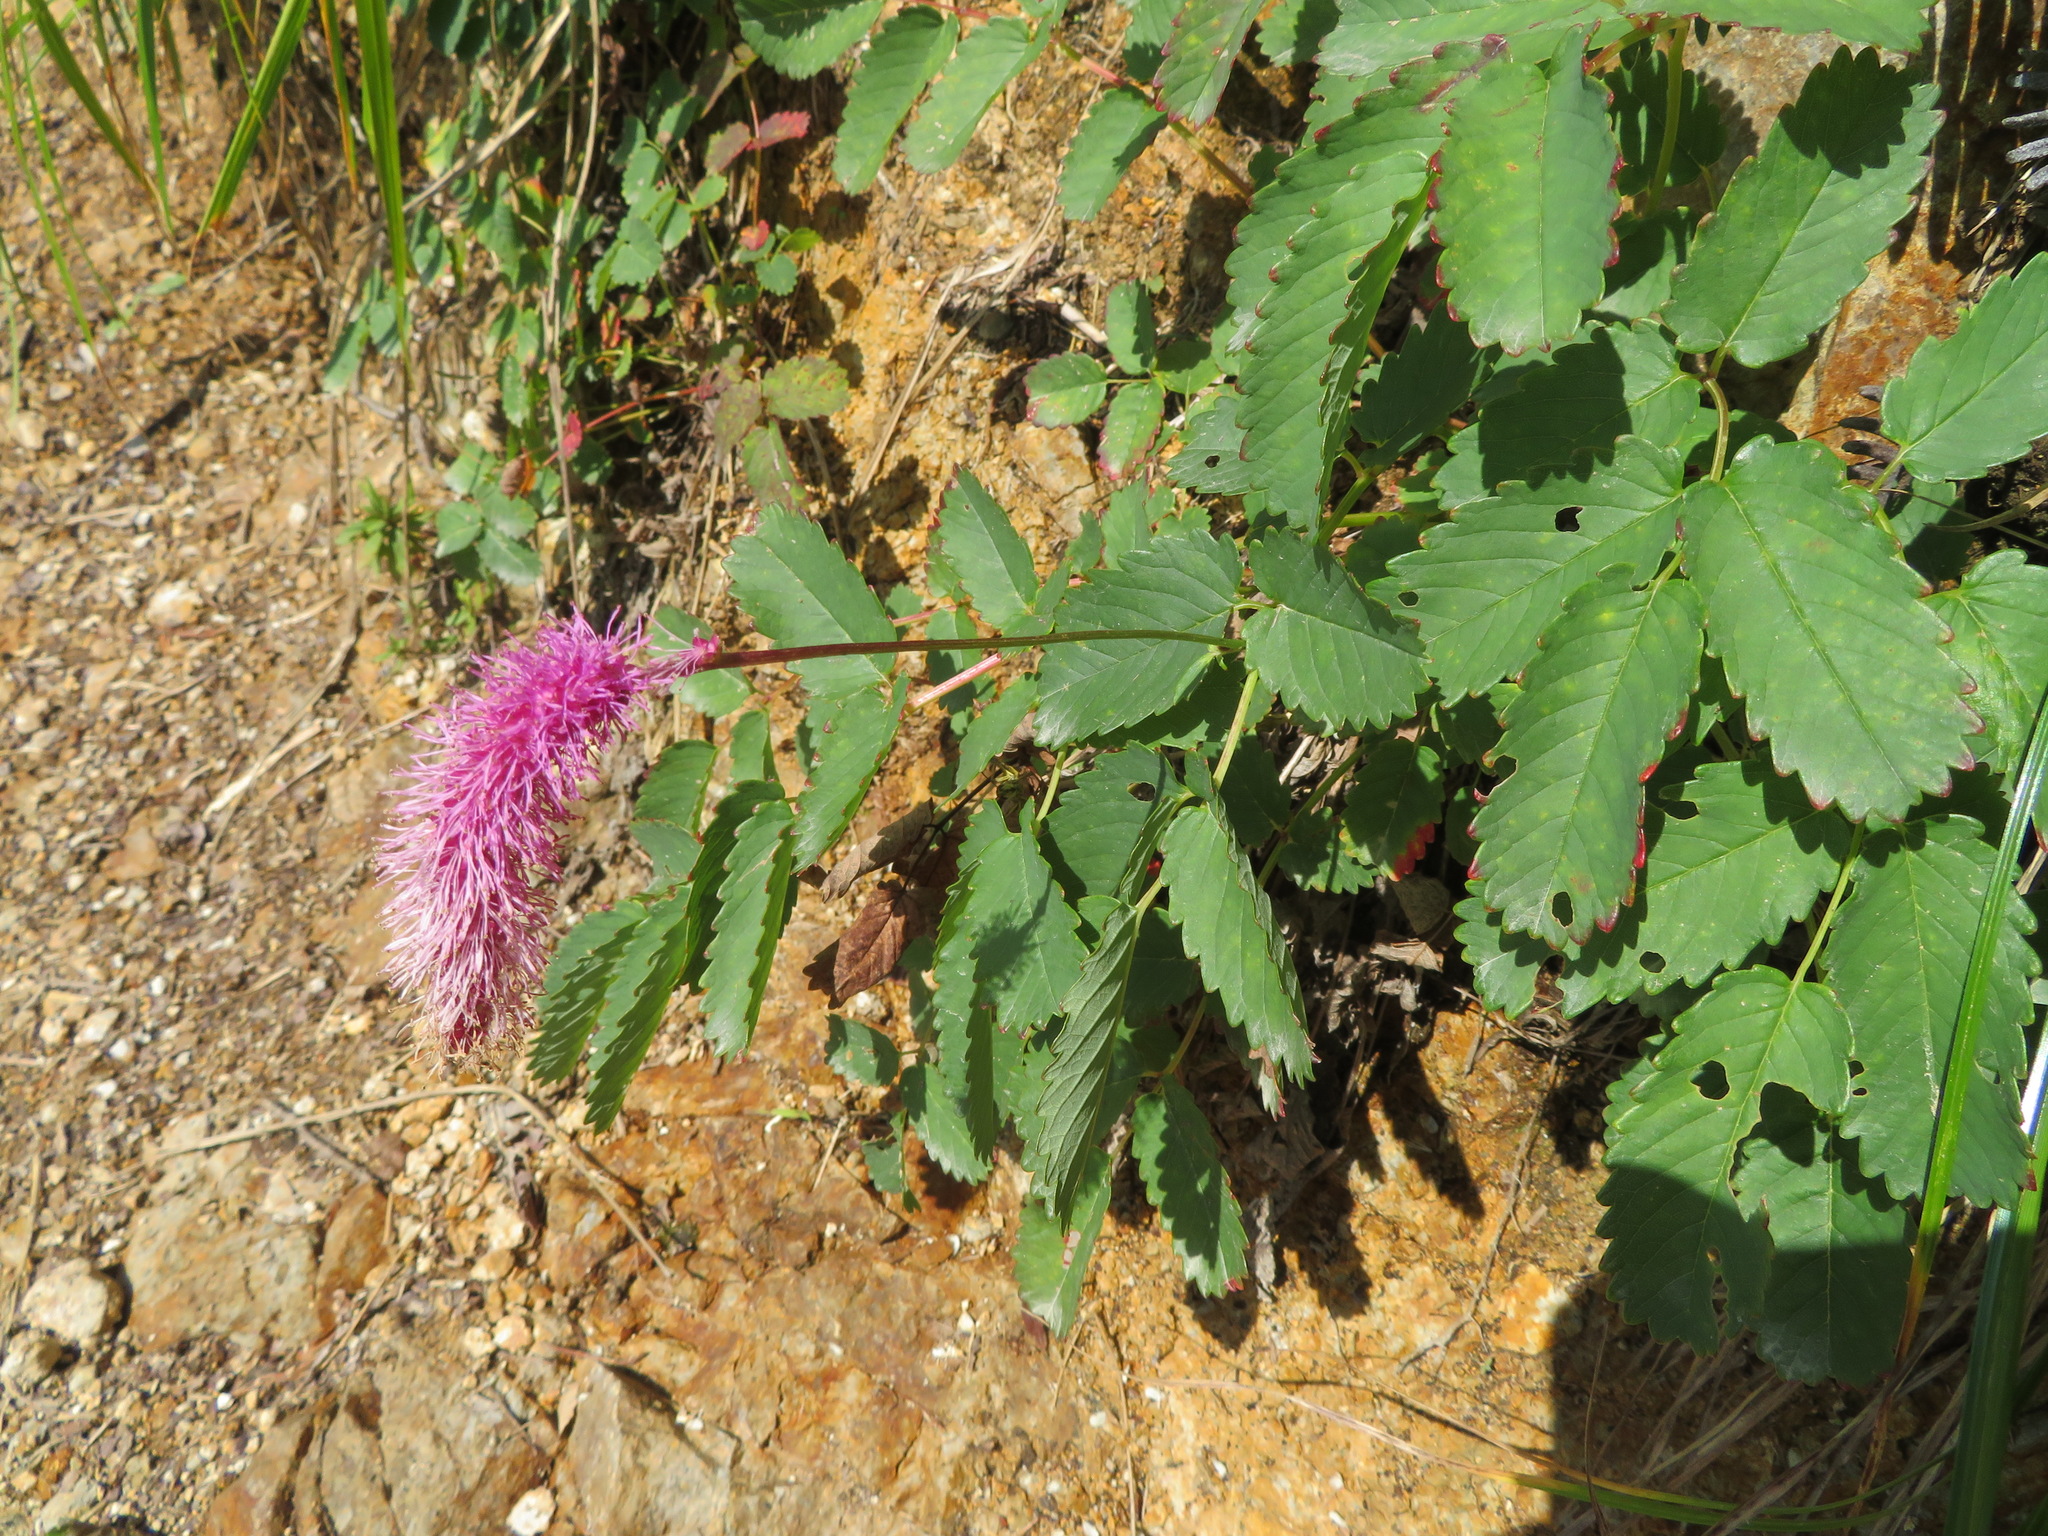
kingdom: Plantae
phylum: Tracheophyta
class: Magnoliopsida
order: Rosales
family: Rosaceae
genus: Sanguisorba
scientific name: Sanguisorba hakusanensis
